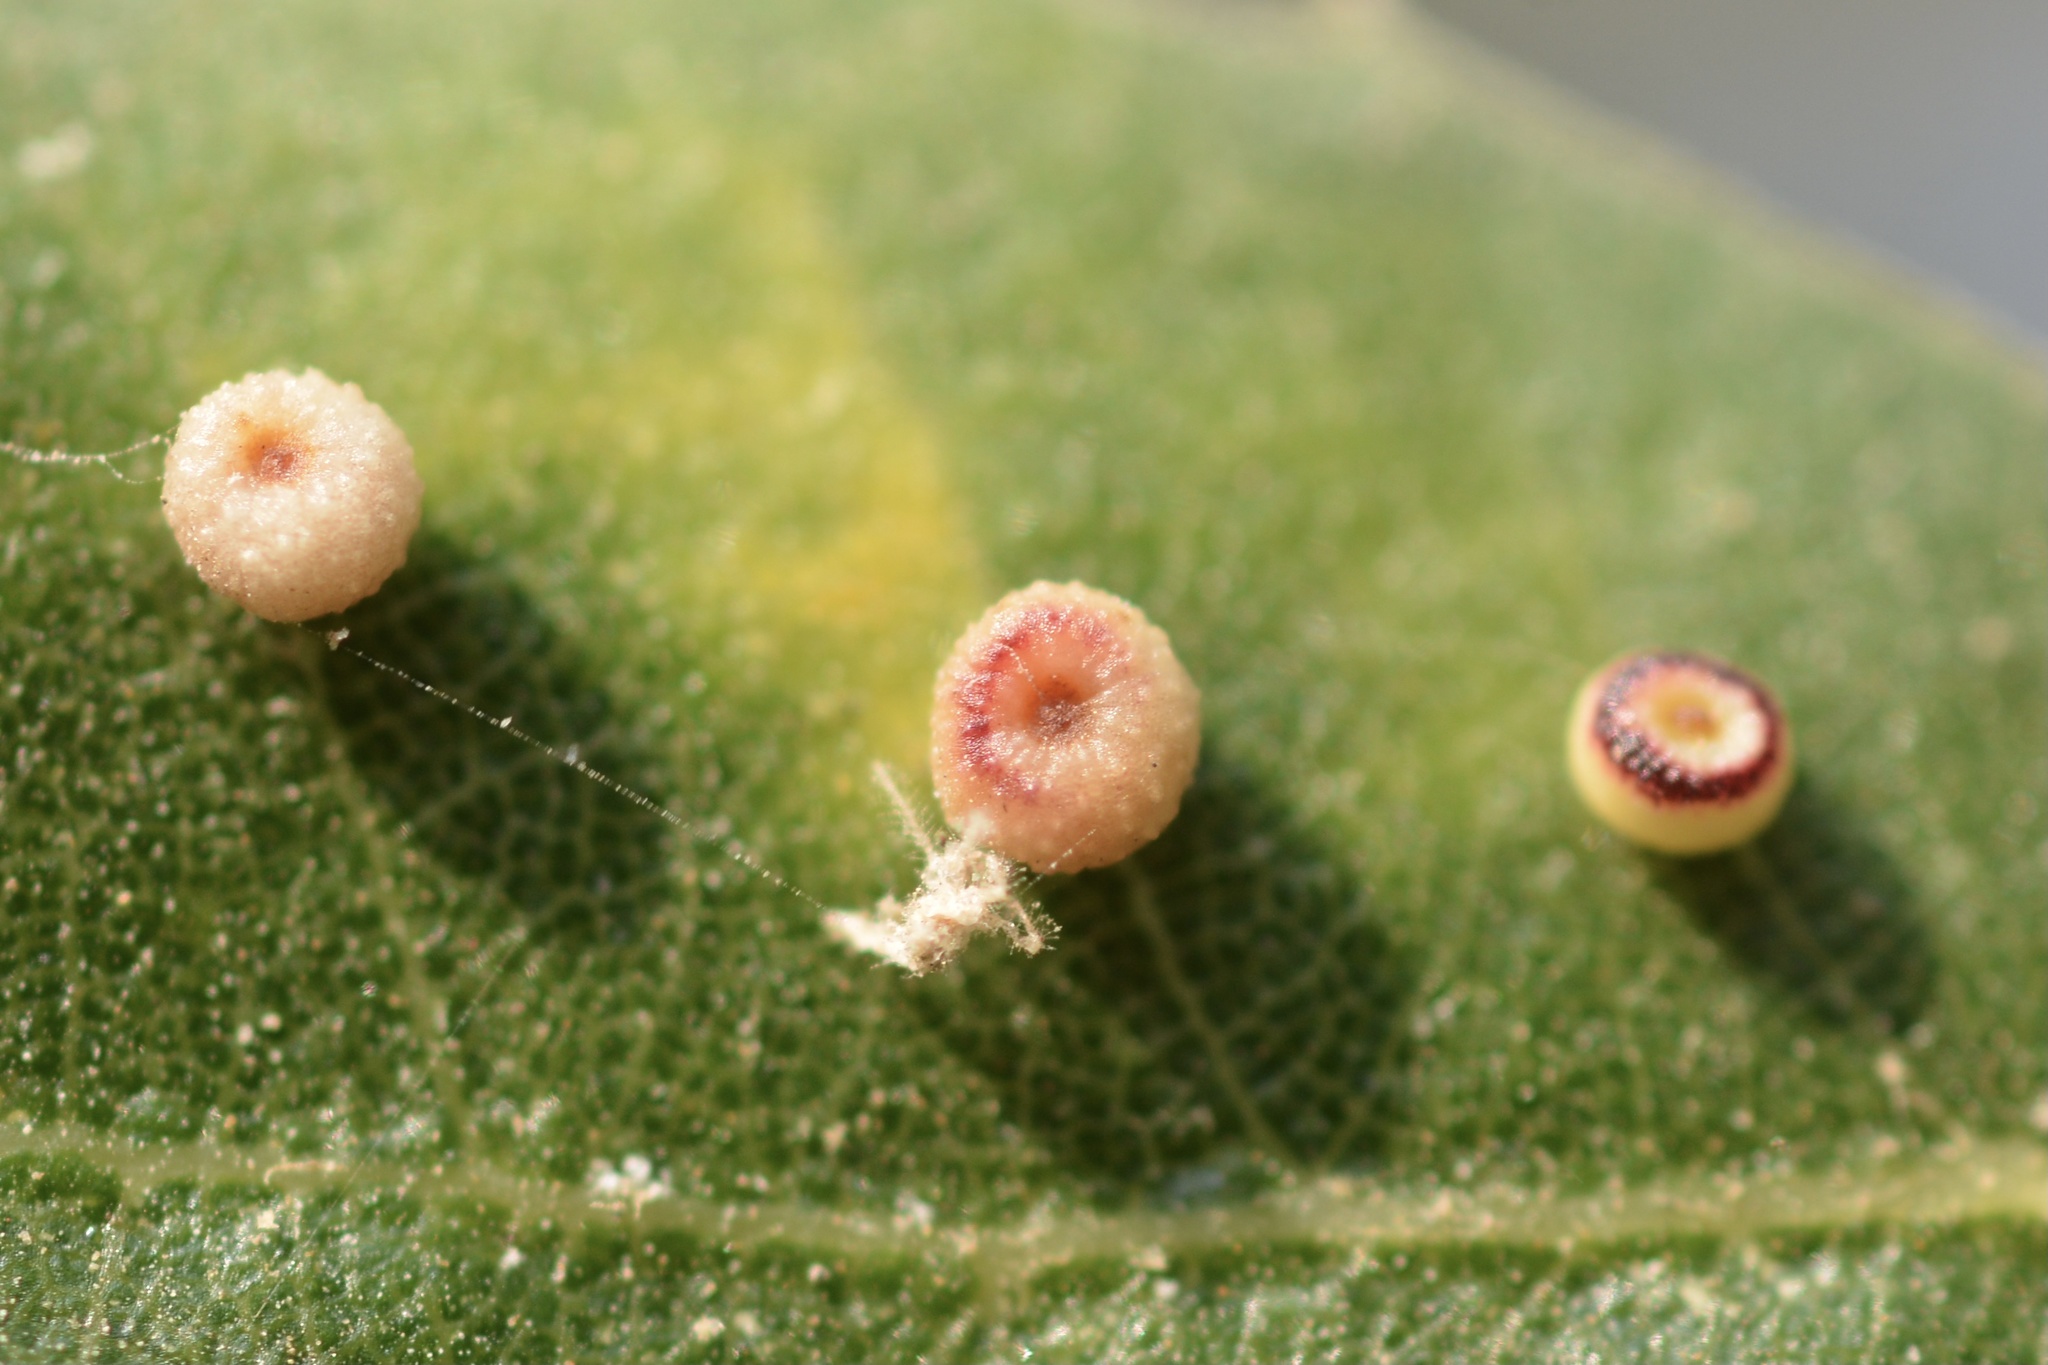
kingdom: Animalia
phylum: Arthropoda
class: Insecta
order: Hymenoptera
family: Cynipidae
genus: Dryocosmus
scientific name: Dryocosmus
